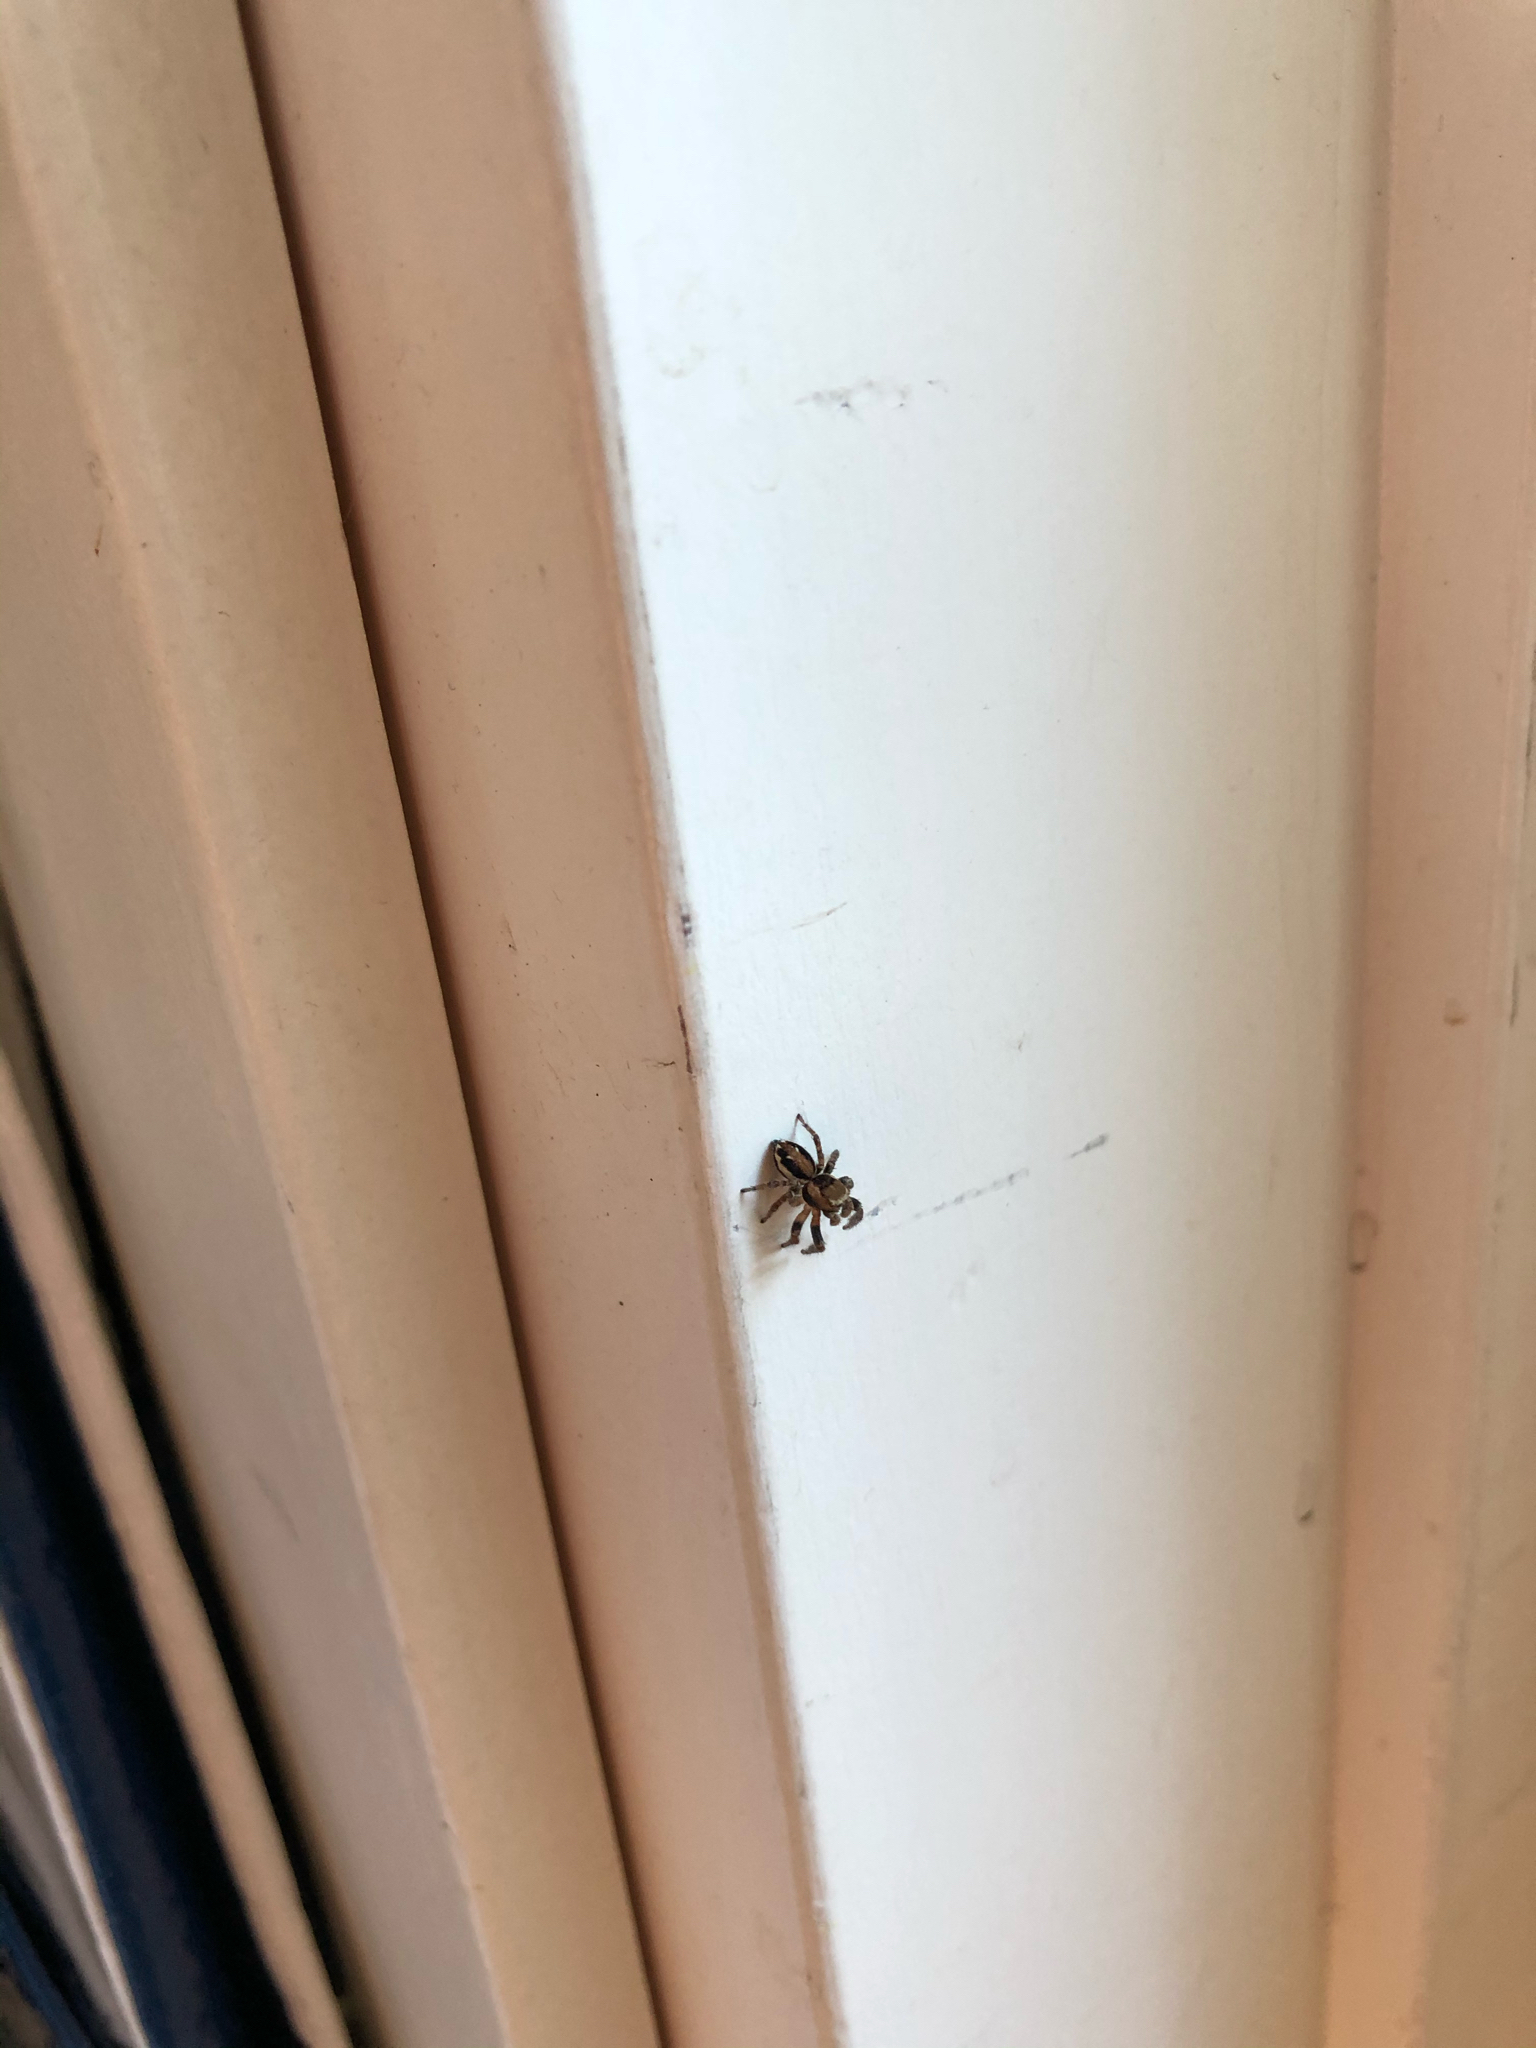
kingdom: Animalia
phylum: Arthropoda
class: Arachnida
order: Araneae
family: Salticidae
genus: Evarcha
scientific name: Evarcha falcata
